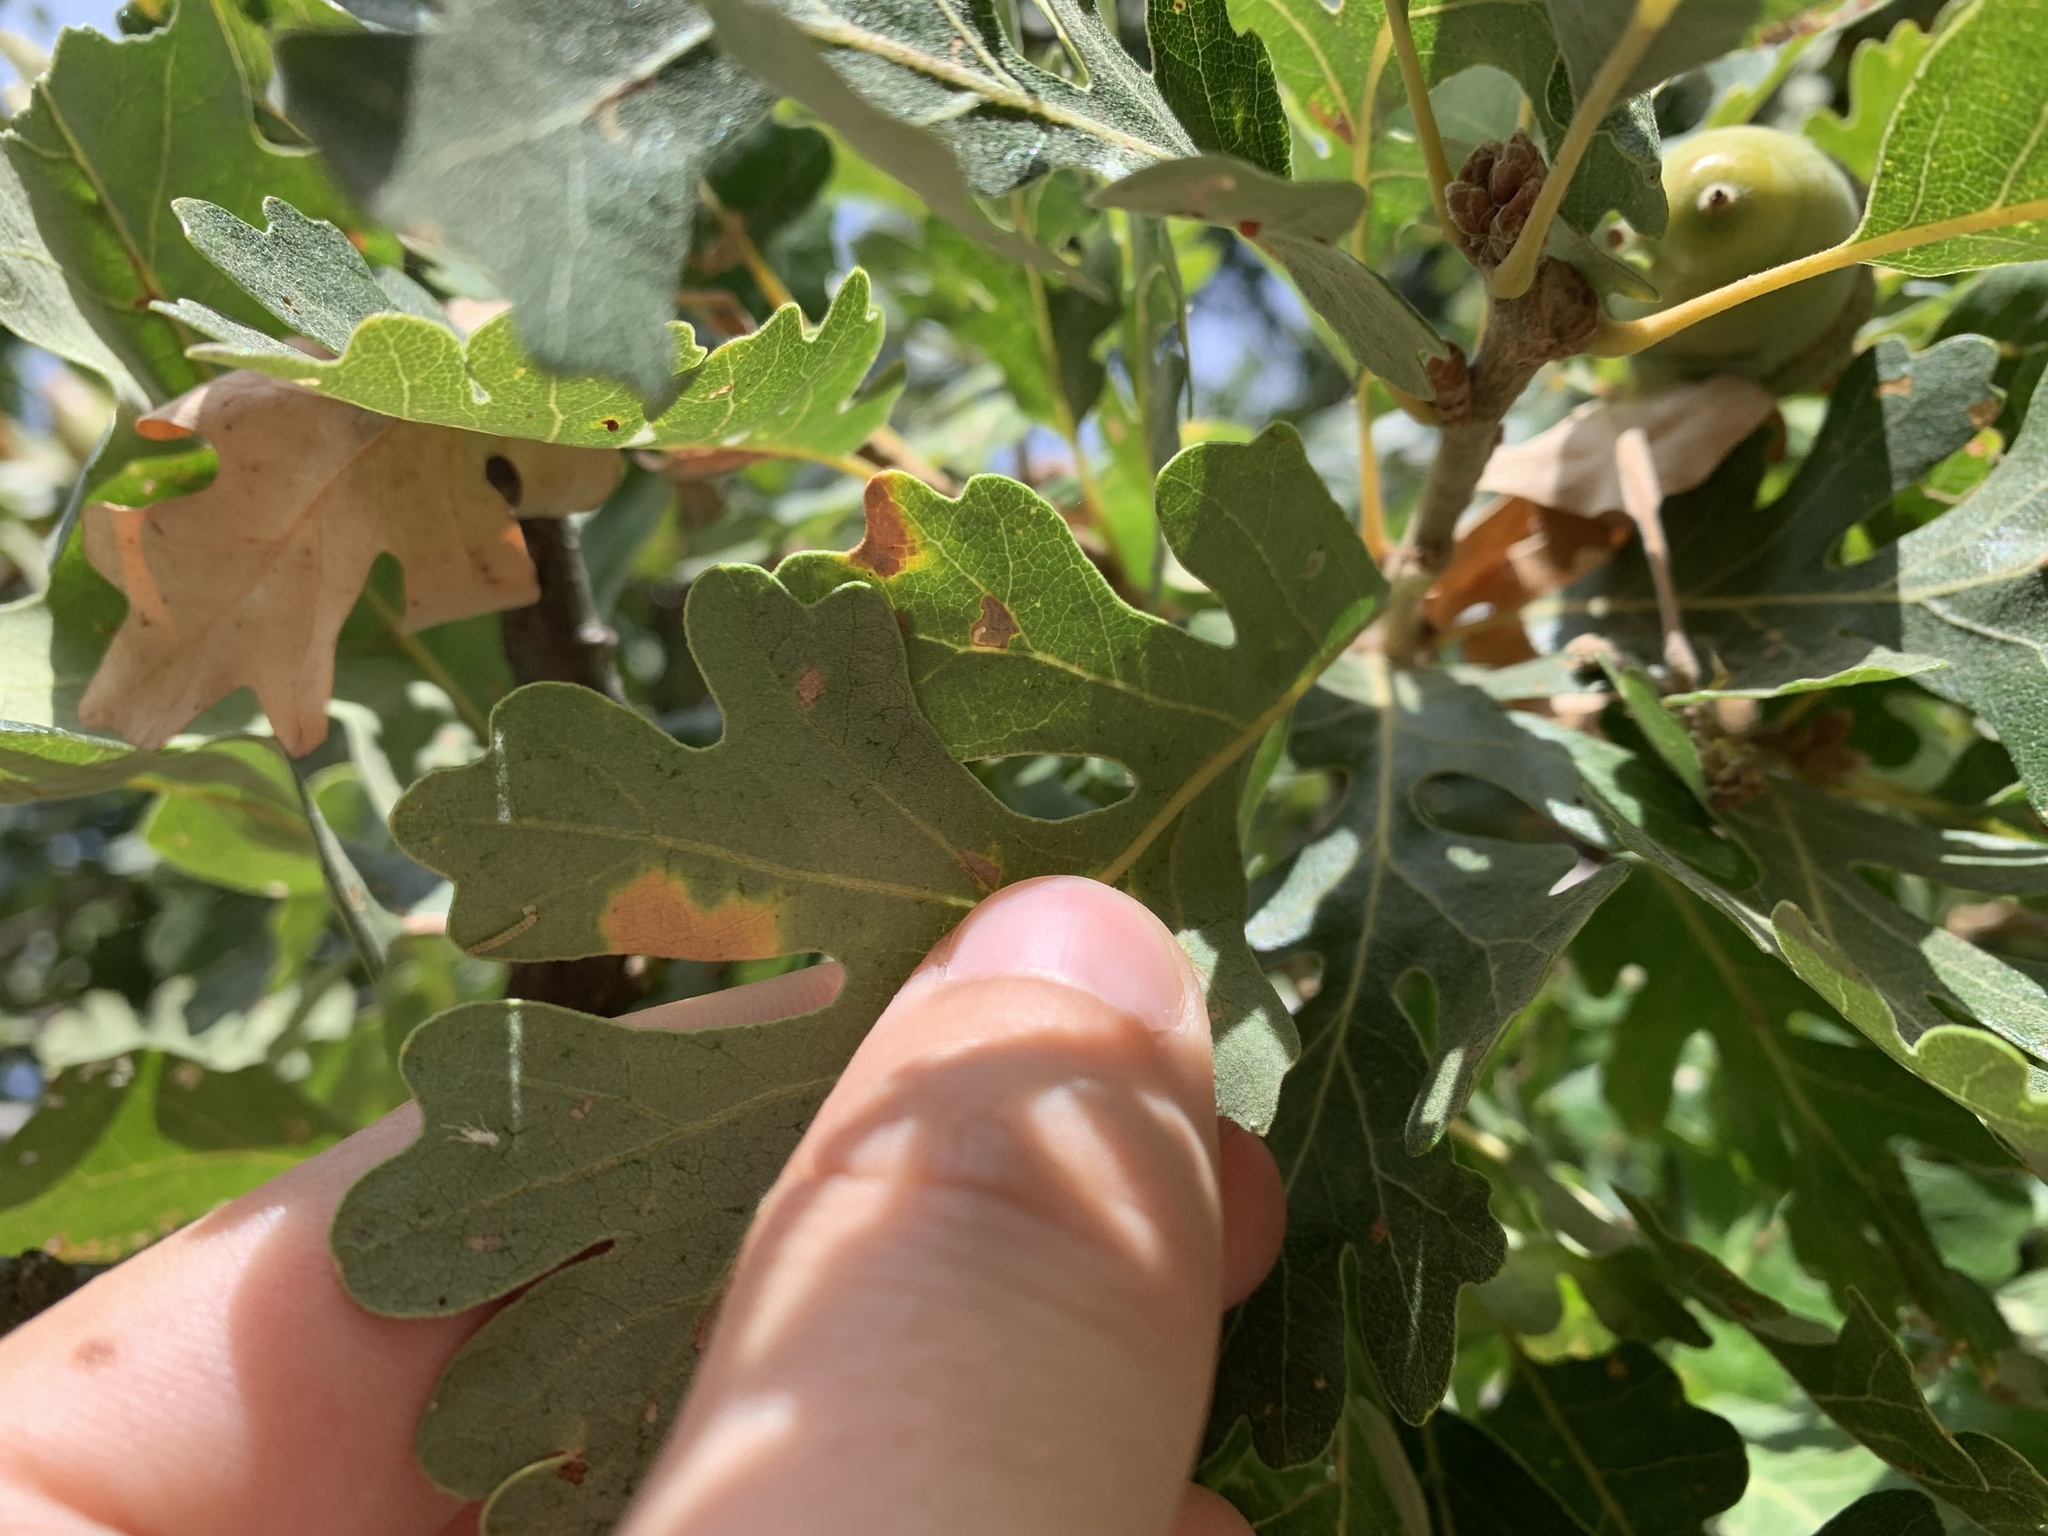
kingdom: Animalia
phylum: Arthropoda
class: Insecta
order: Hymenoptera
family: Cynipidae
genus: Andricus
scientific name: Andricus
